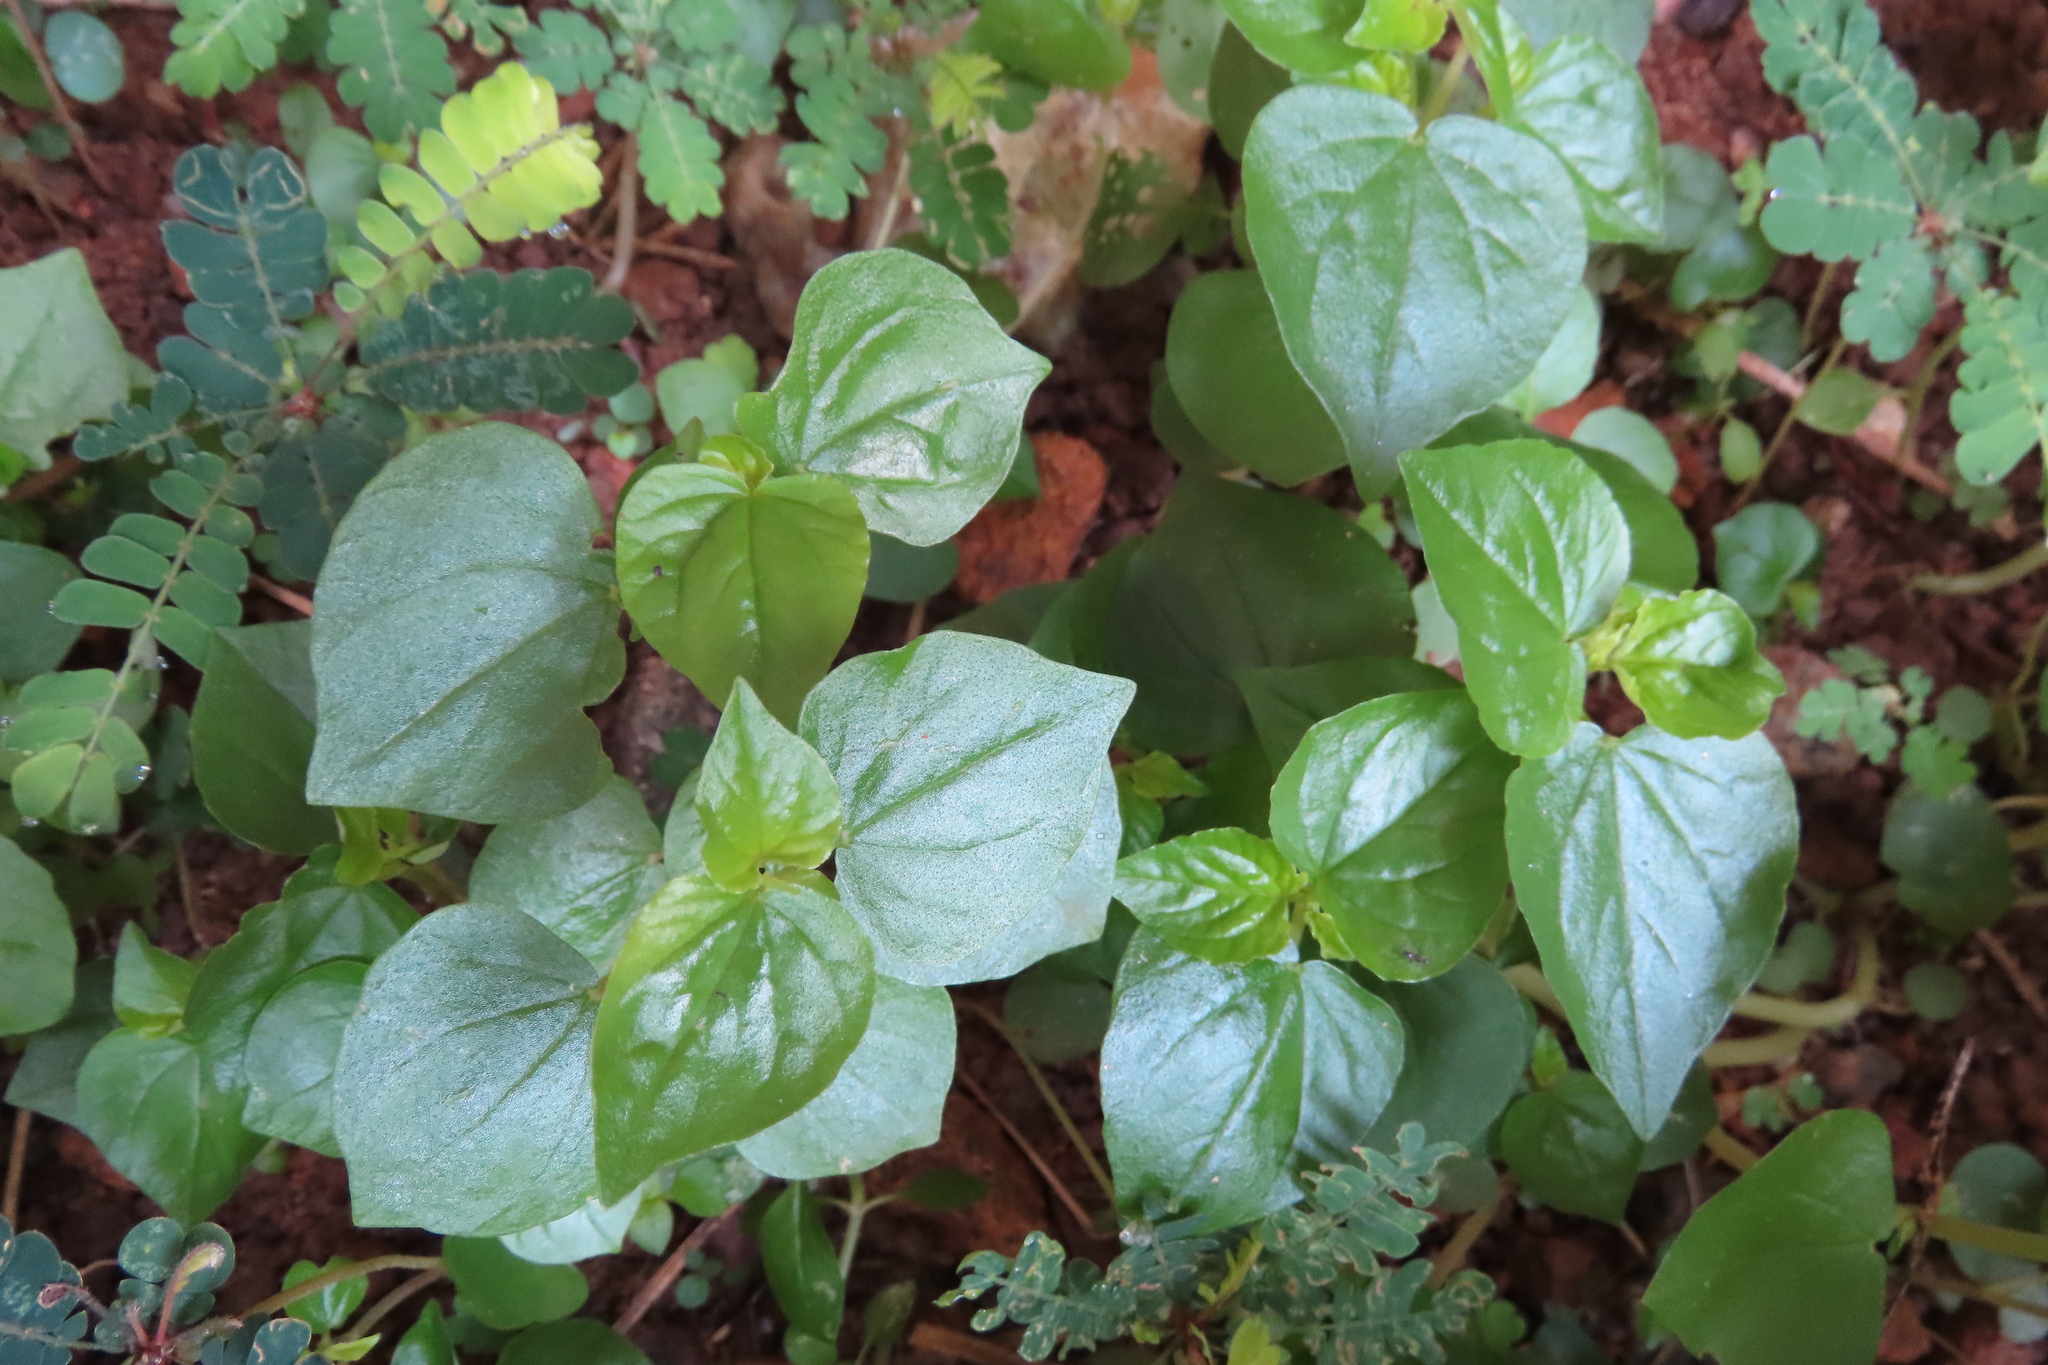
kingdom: Plantae
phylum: Tracheophyta
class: Magnoliopsida
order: Piperales
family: Piperaceae
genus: Peperomia
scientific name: Peperomia pellucida
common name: Man to man
